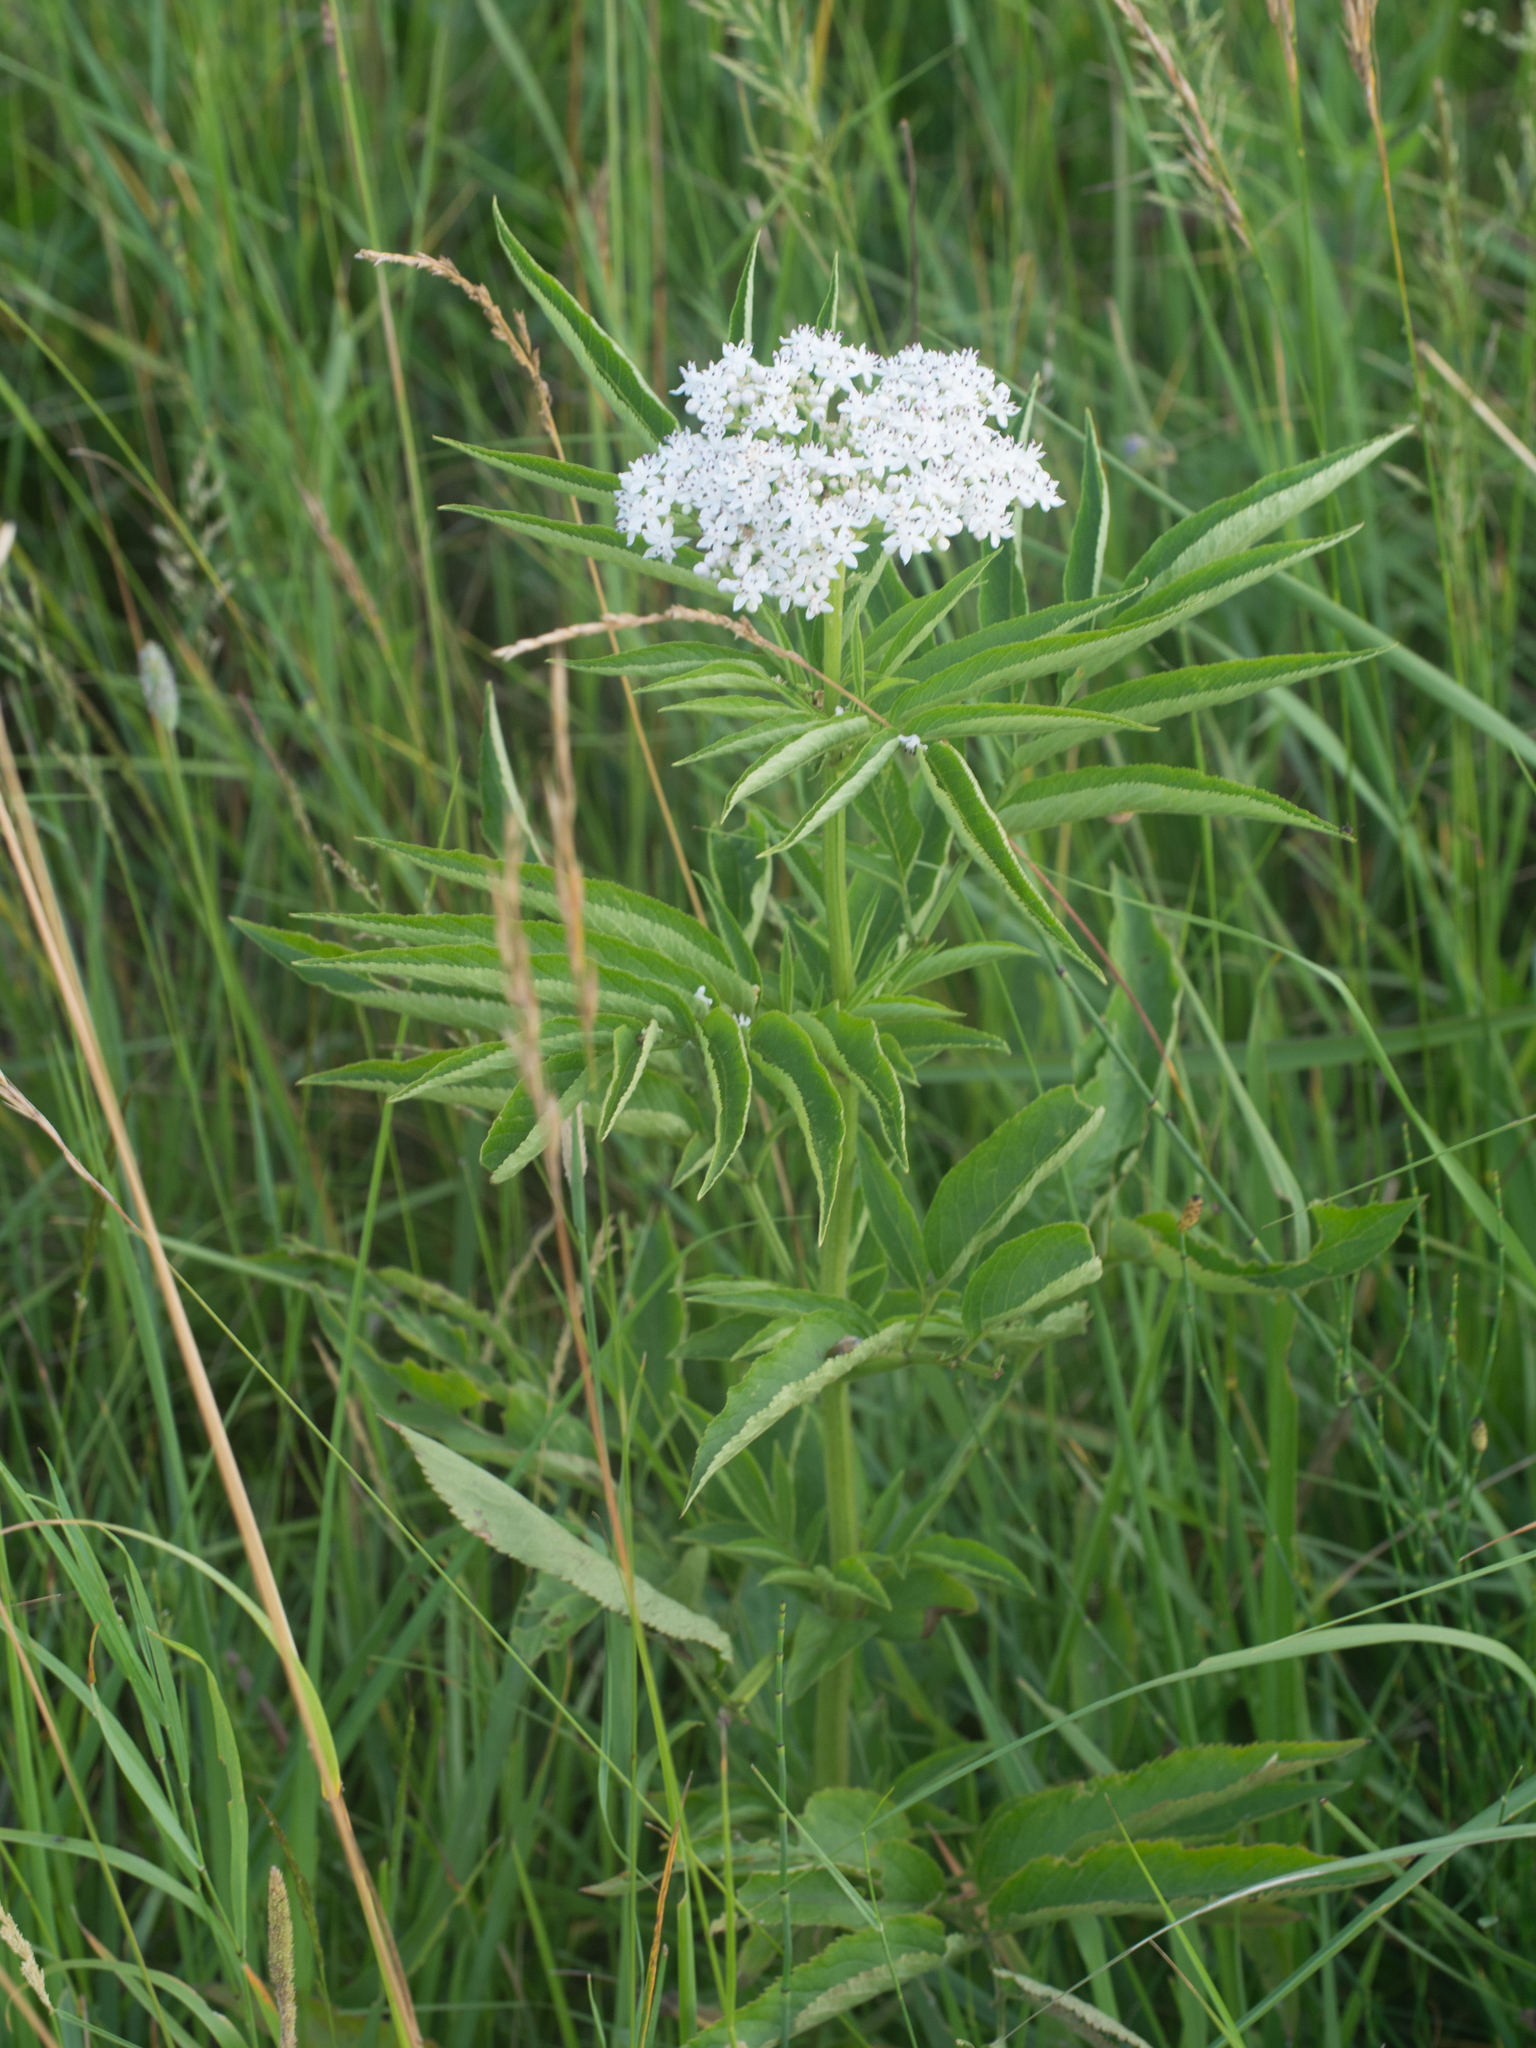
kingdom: Plantae
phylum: Tracheophyta
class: Magnoliopsida
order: Dipsacales
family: Viburnaceae
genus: Sambucus
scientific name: Sambucus ebulus
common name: Dwarf elder
